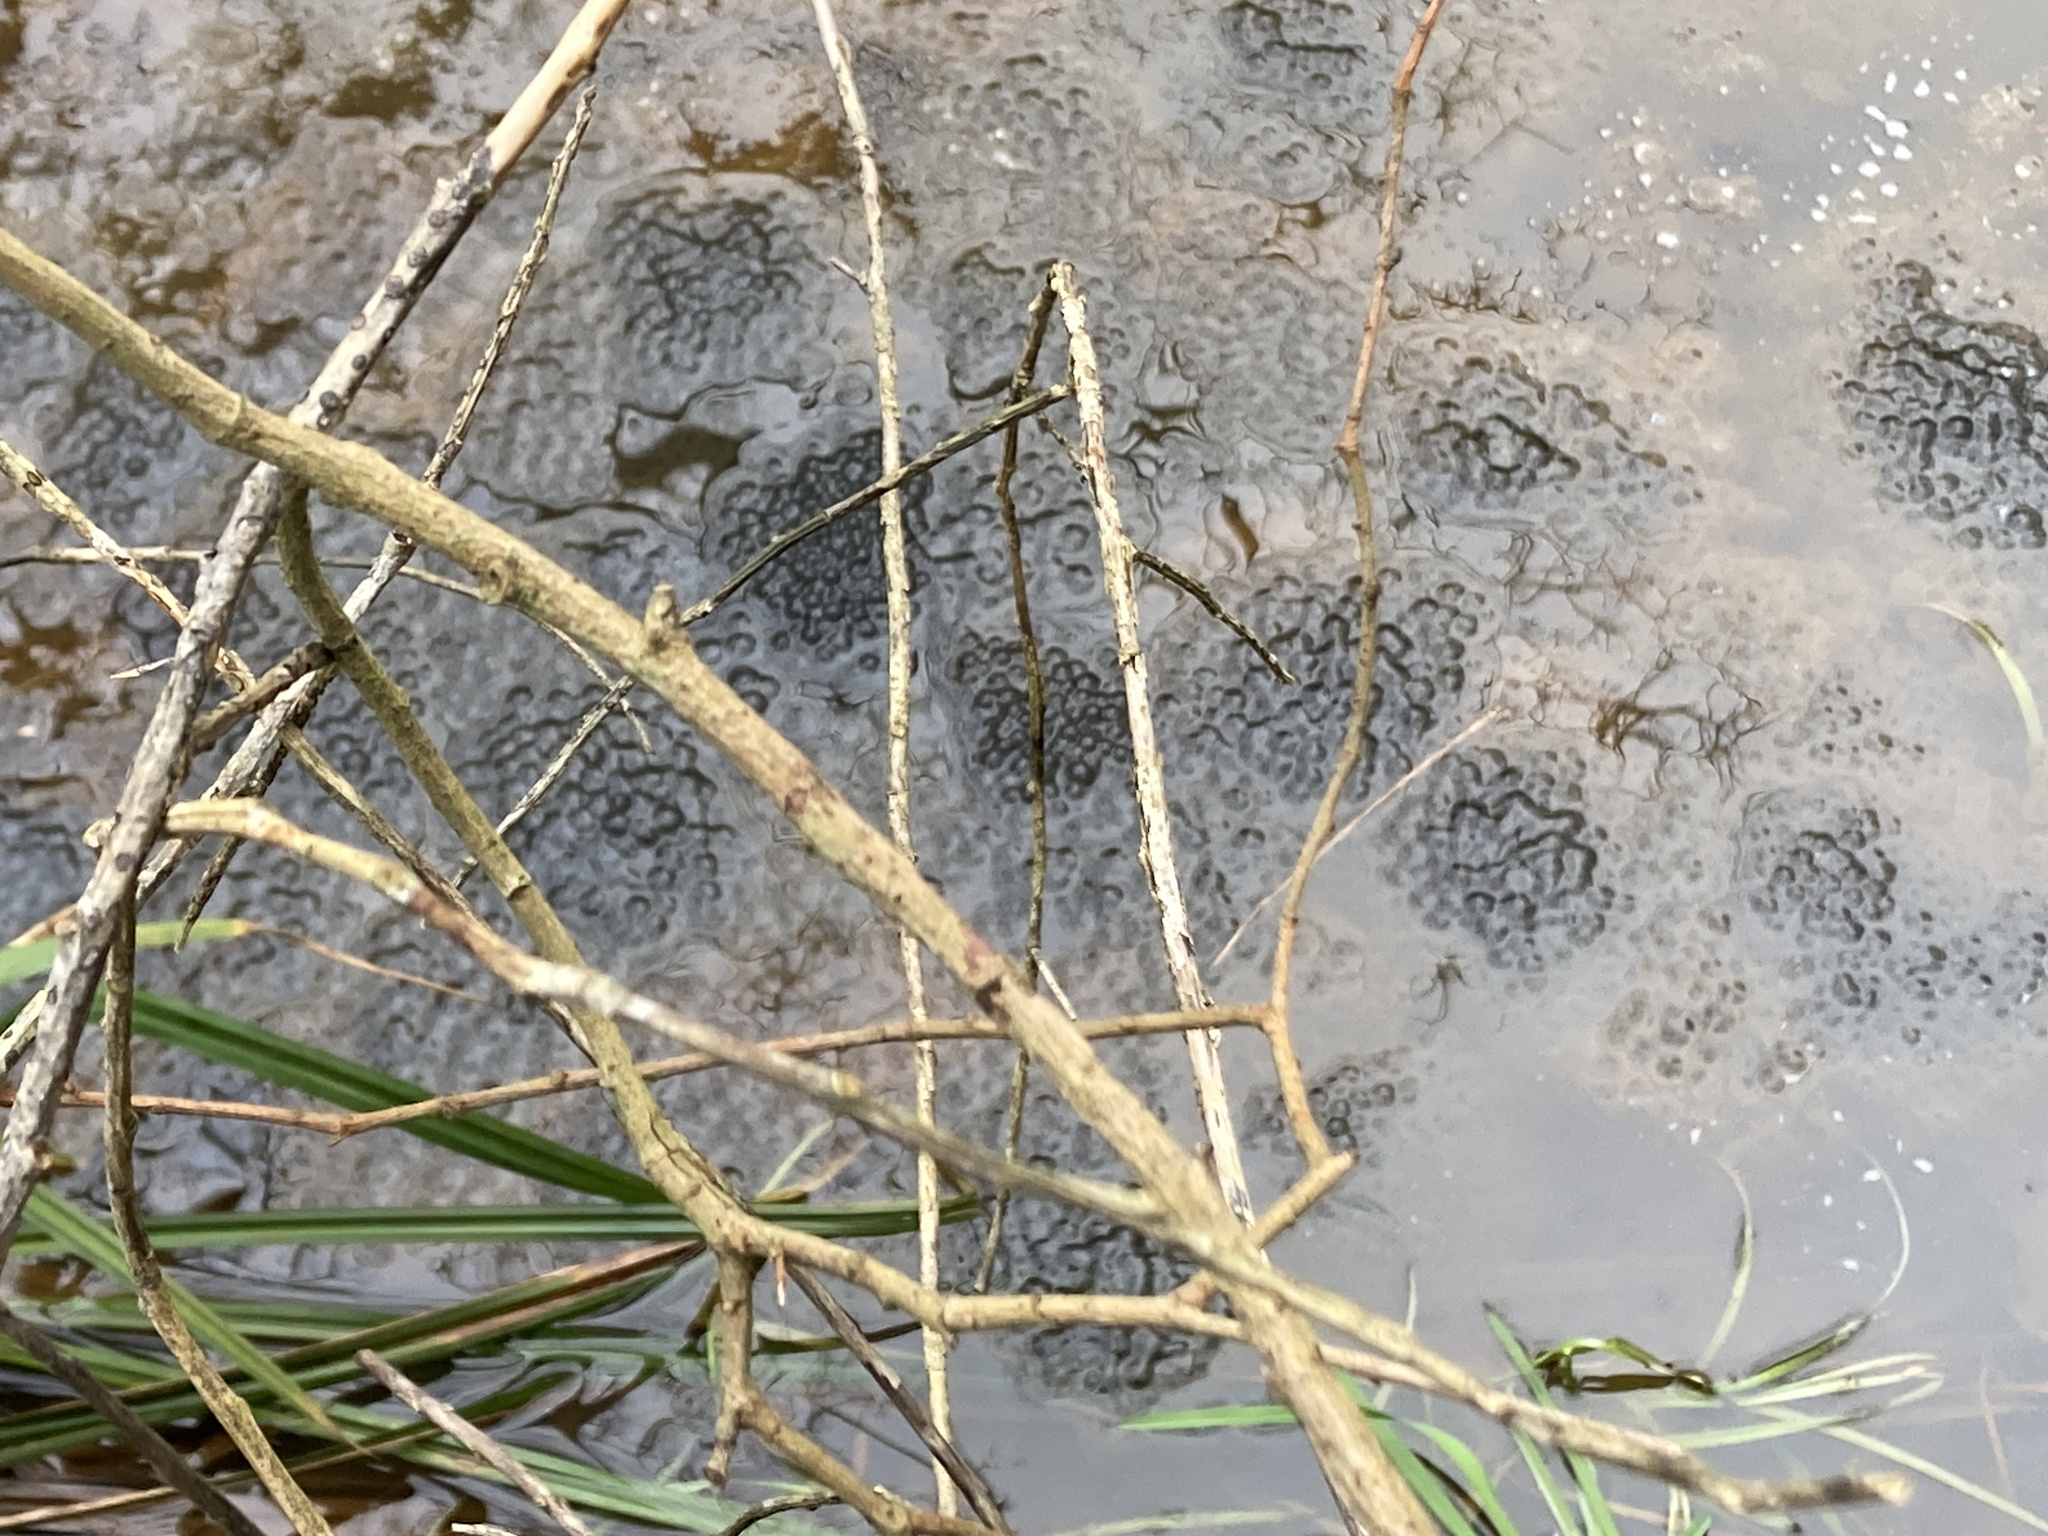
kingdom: Animalia
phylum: Chordata
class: Amphibia
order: Anura
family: Ranidae
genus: Rana
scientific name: Rana temporaria
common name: Common frog
